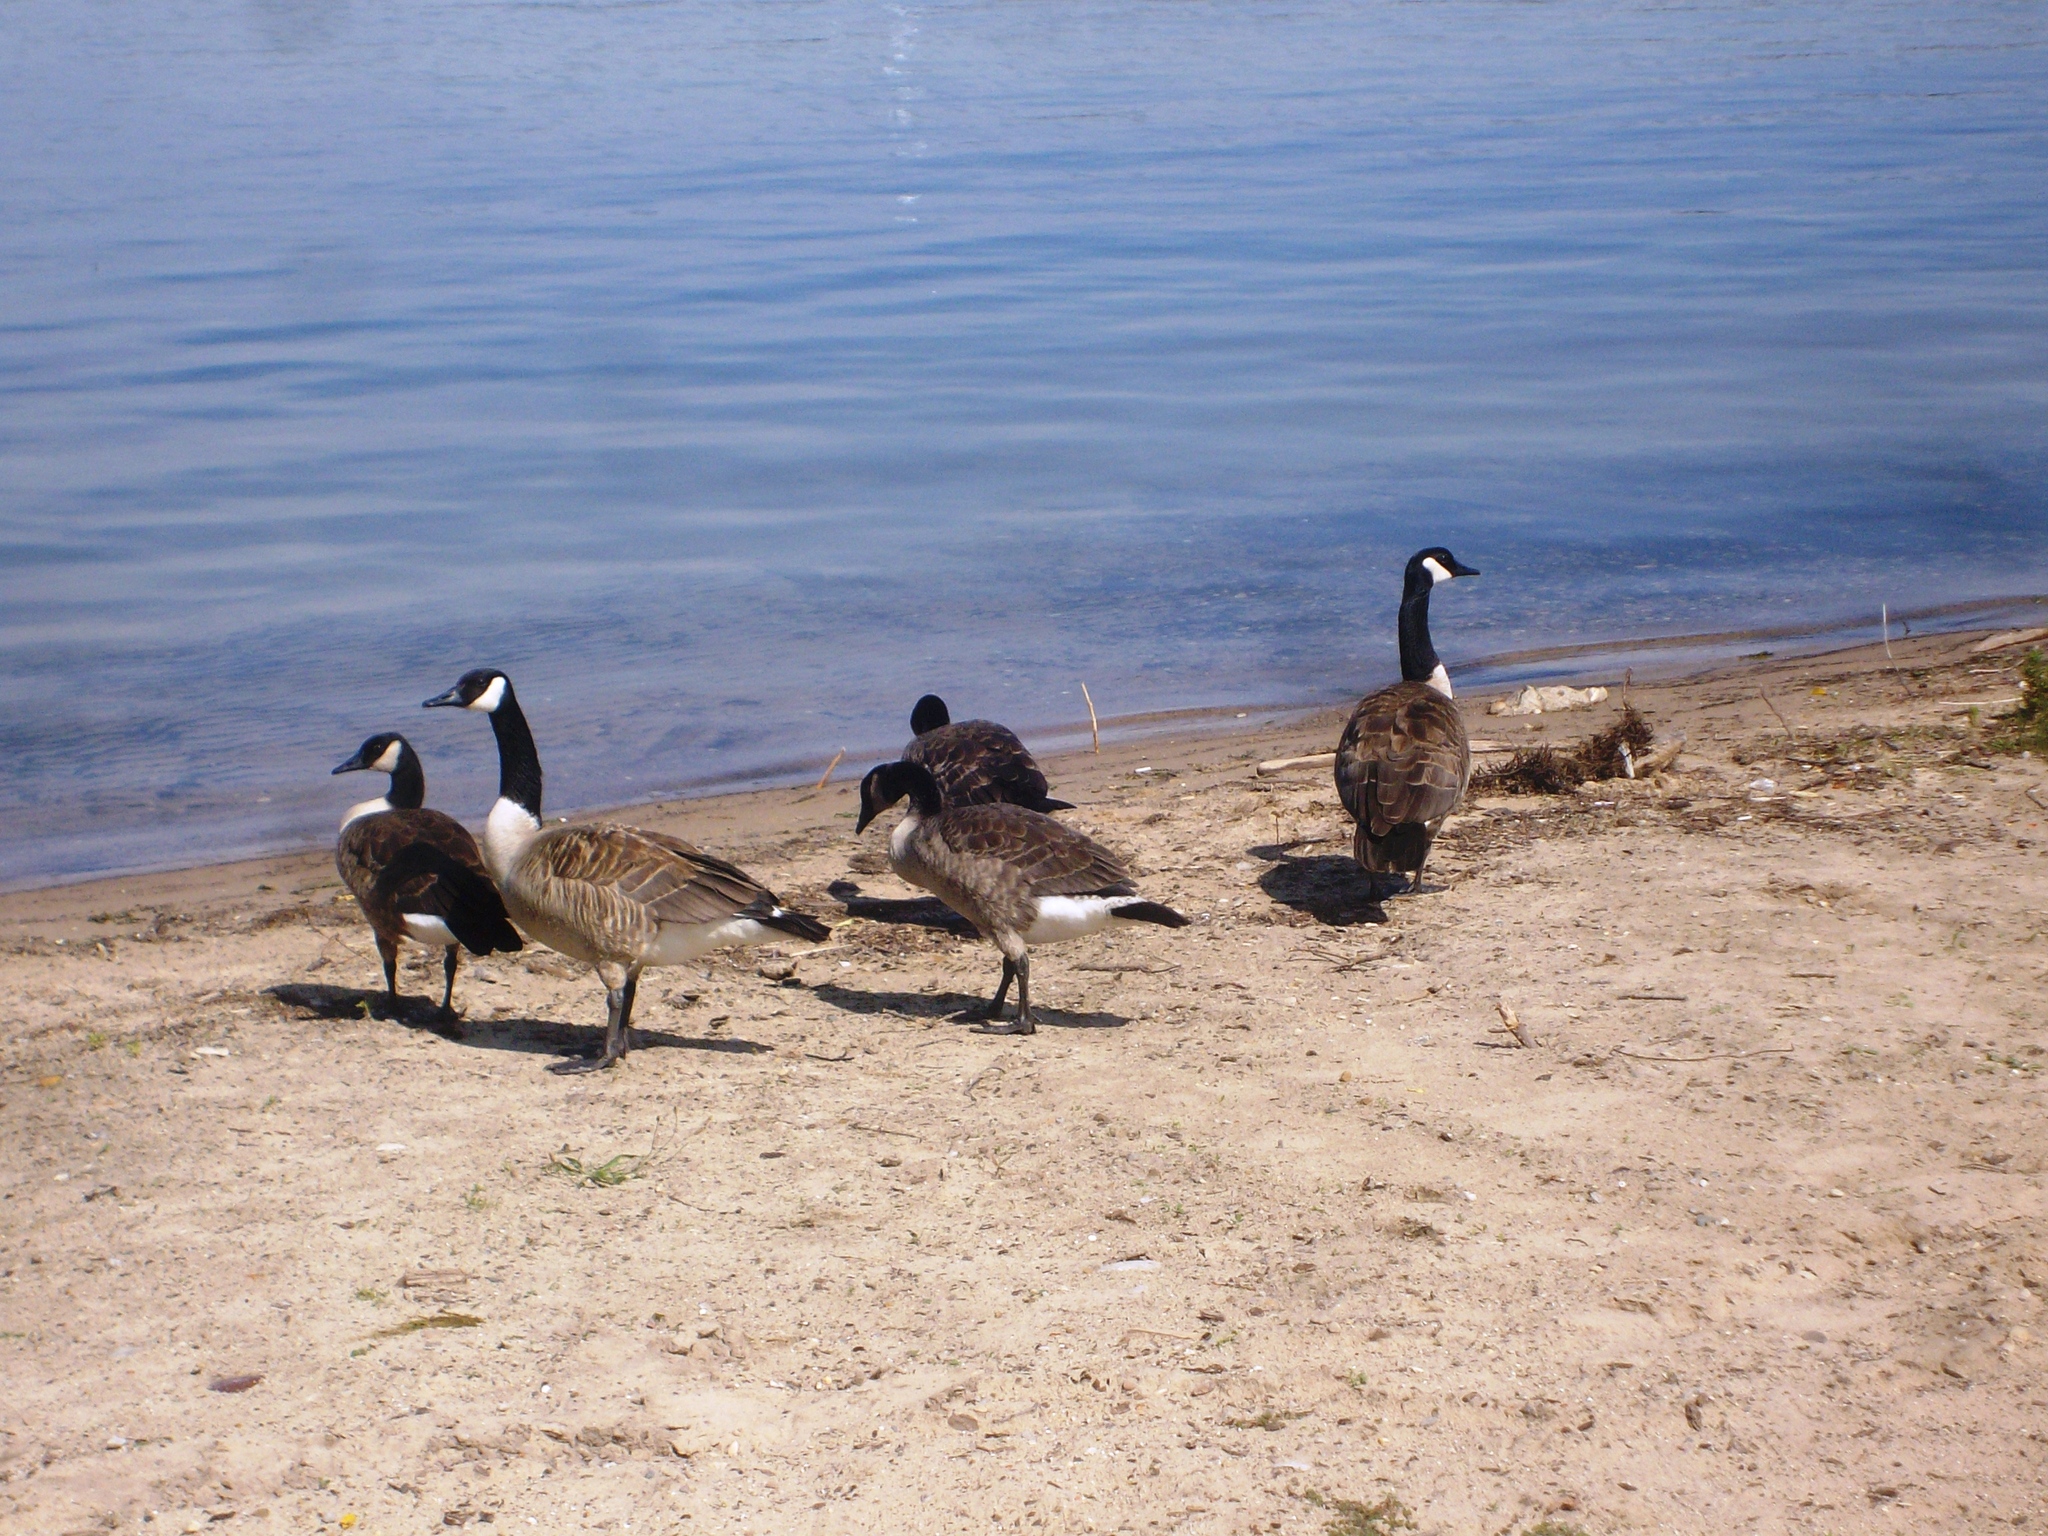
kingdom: Animalia
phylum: Chordata
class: Aves
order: Anseriformes
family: Anatidae
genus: Branta
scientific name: Branta canadensis
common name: Canada goose
